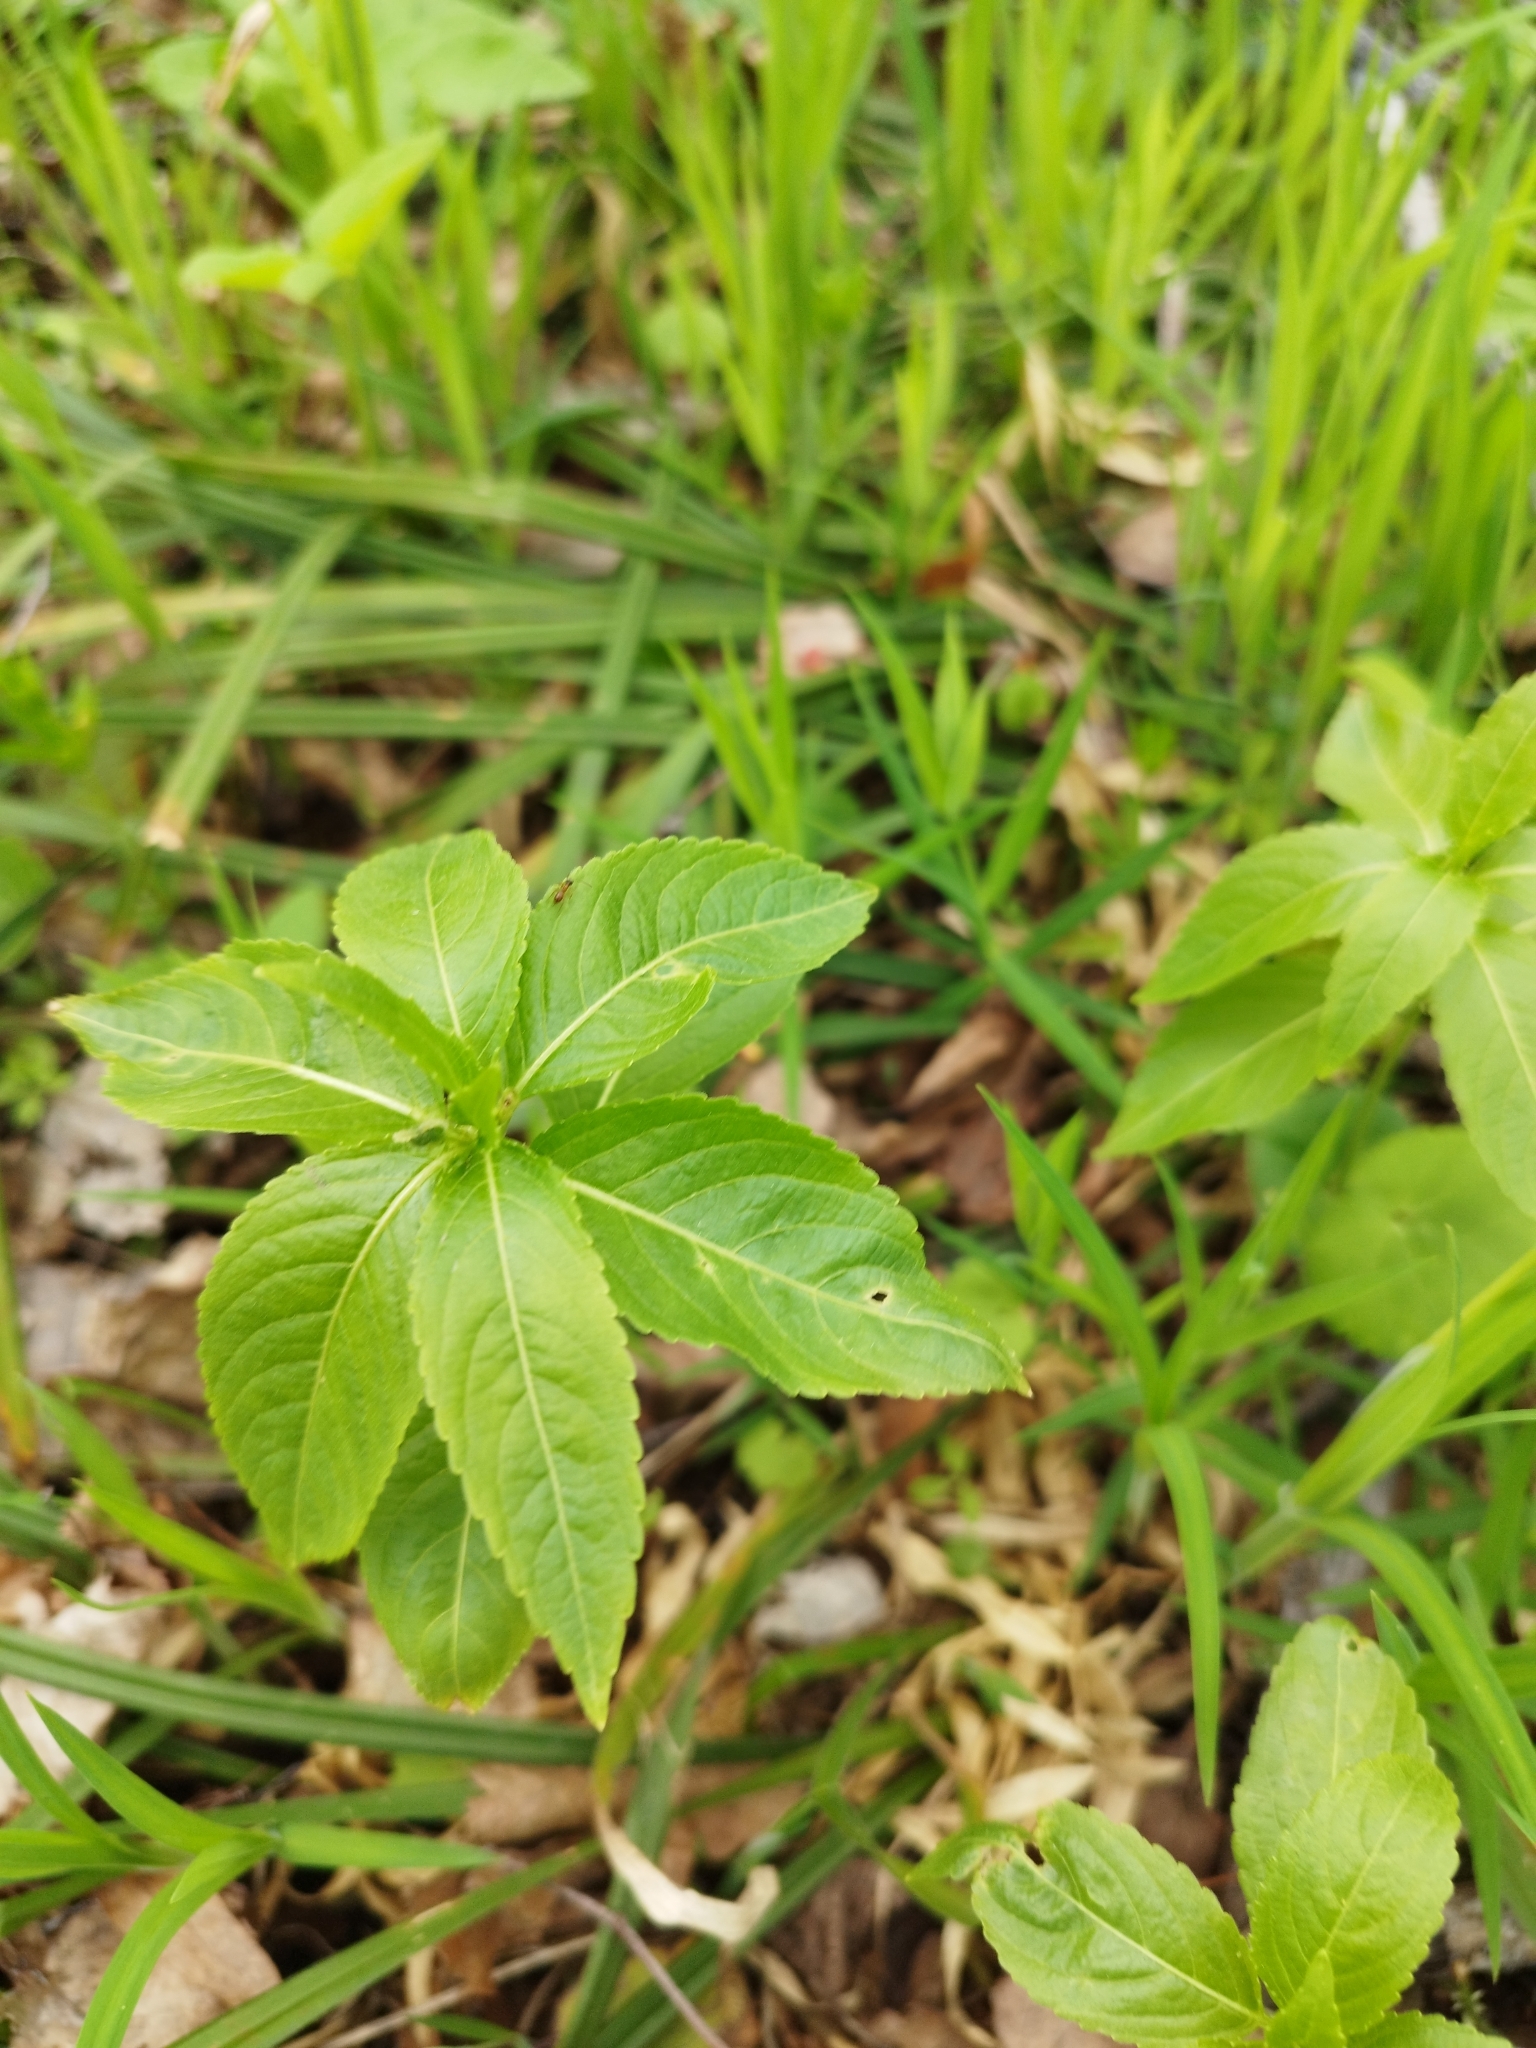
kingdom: Plantae
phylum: Tracheophyta
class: Magnoliopsida
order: Malpighiales
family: Euphorbiaceae
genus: Mercurialis
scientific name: Mercurialis perennis
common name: Dog mercury
